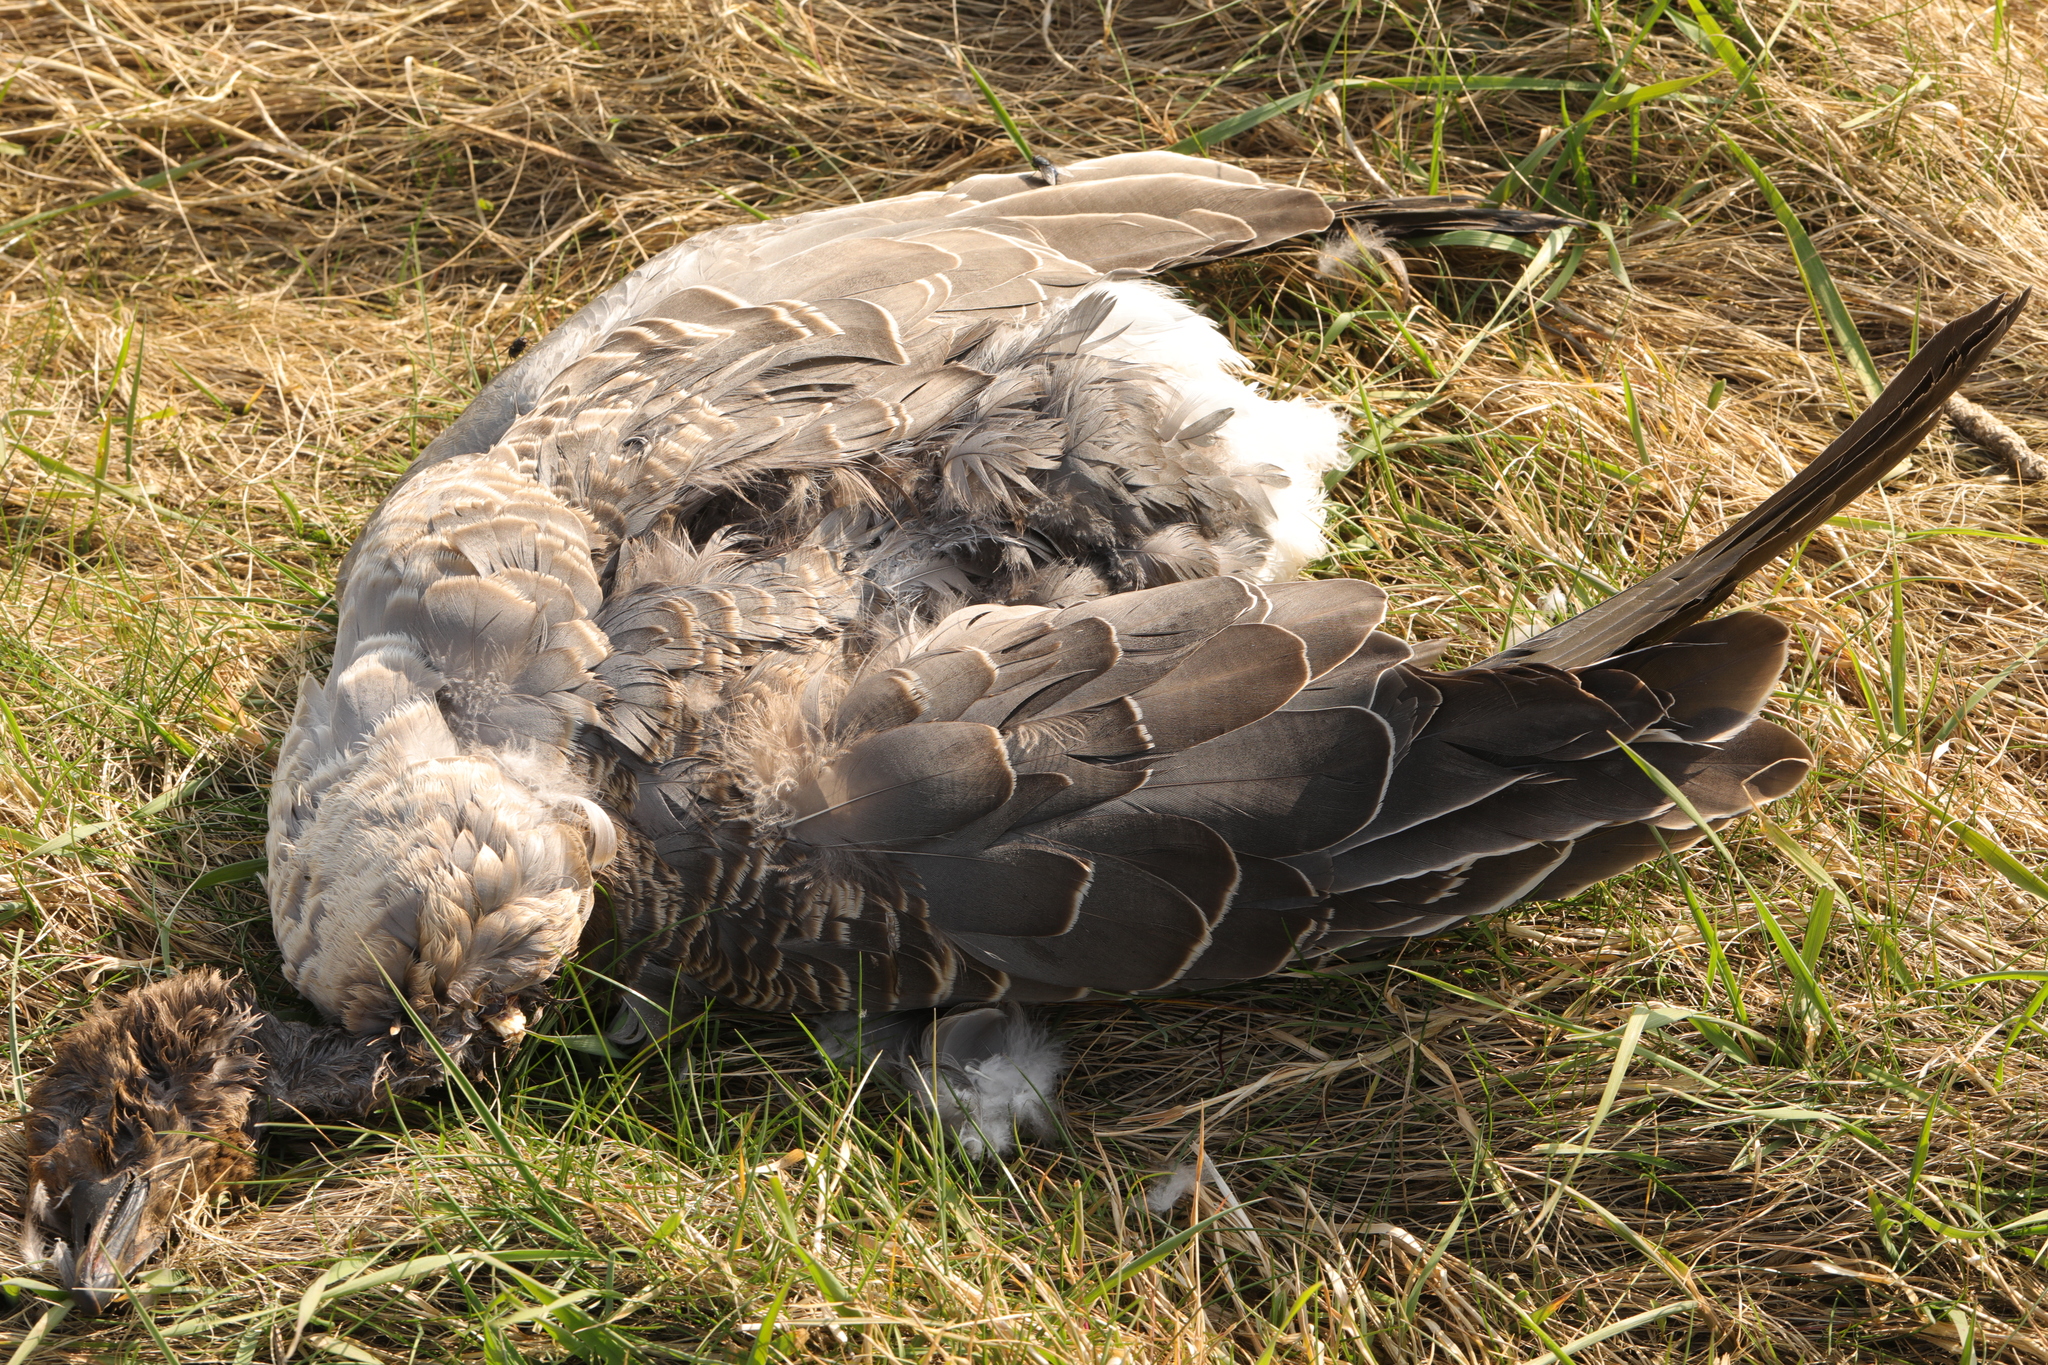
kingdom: Animalia
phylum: Chordata
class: Aves
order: Anseriformes
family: Anatidae
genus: Anser
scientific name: Anser brachyrhynchus
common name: Pink-footed goose
